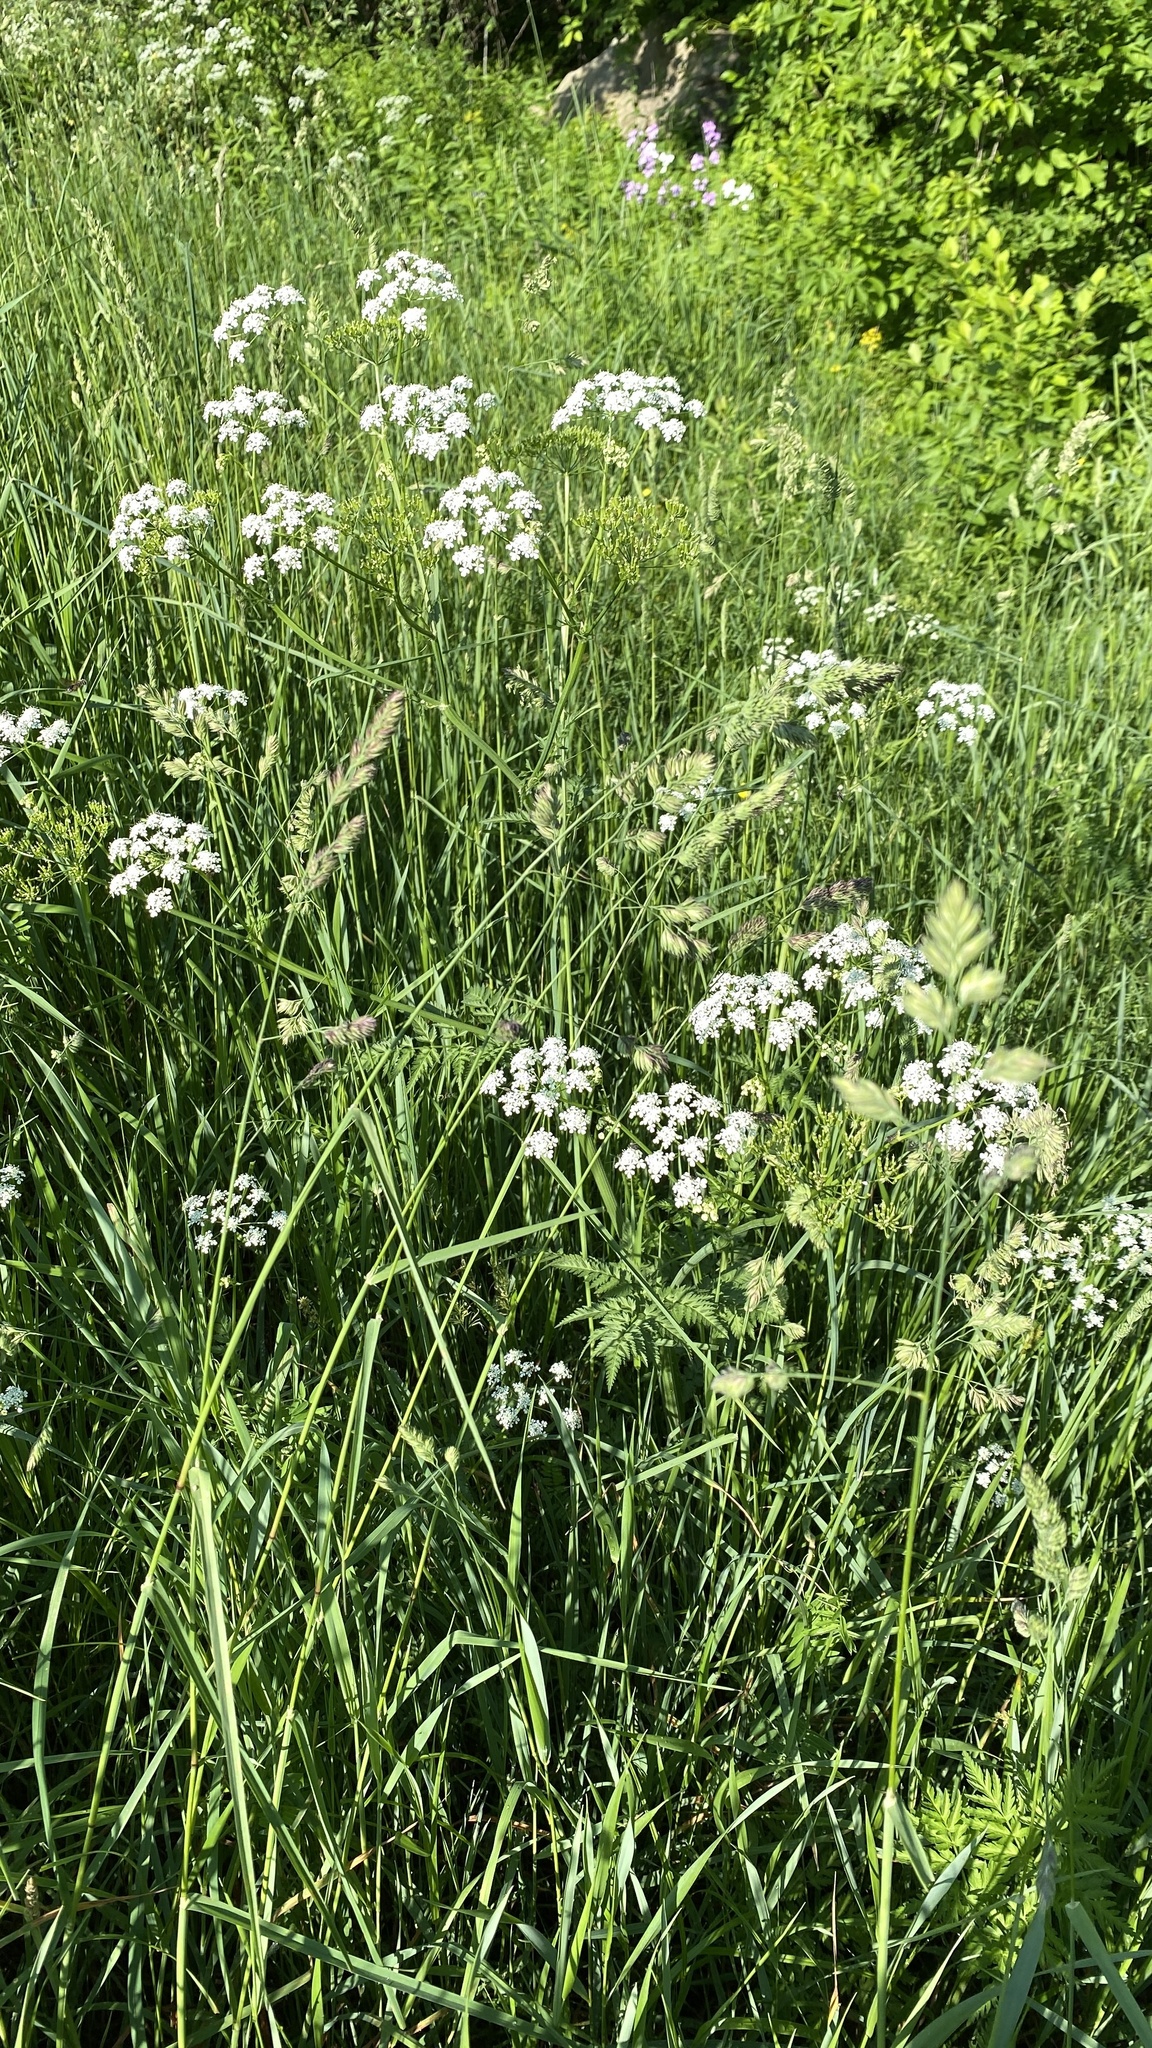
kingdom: Plantae
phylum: Tracheophyta
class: Magnoliopsida
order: Apiales
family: Apiaceae
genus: Anthriscus
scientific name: Anthriscus sylvestris
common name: Cow parsley
